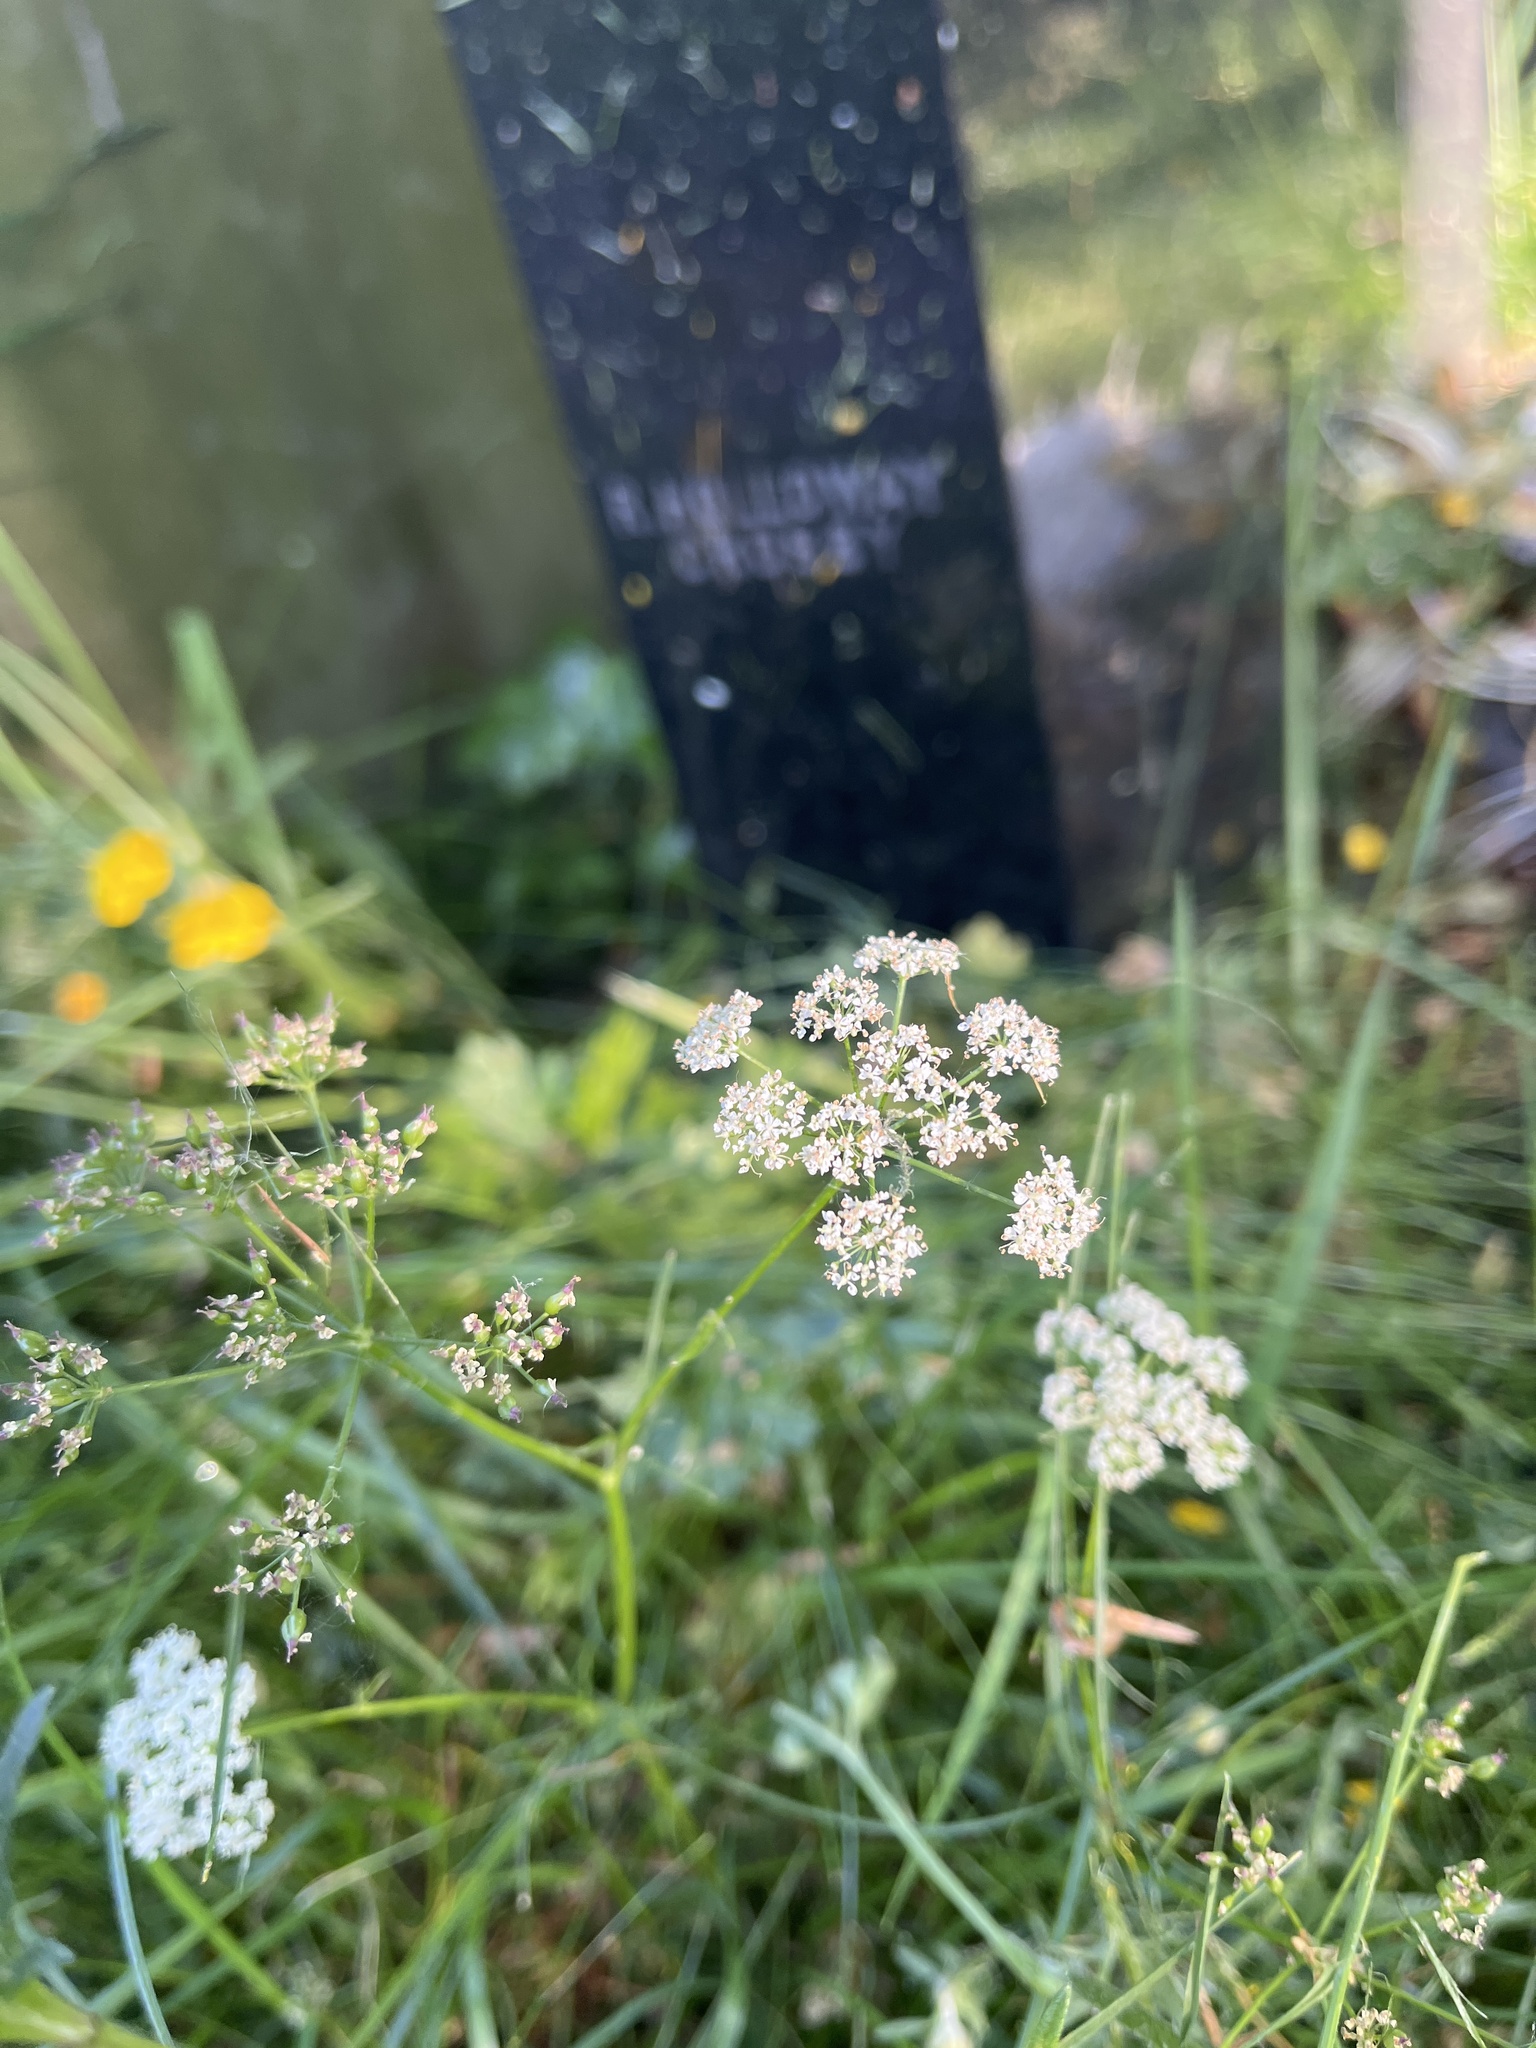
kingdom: Plantae
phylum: Tracheophyta
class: Magnoliopsida
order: Apiales
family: Apiaceae
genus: Conopodium
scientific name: Conopodium majus
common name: Pignut
